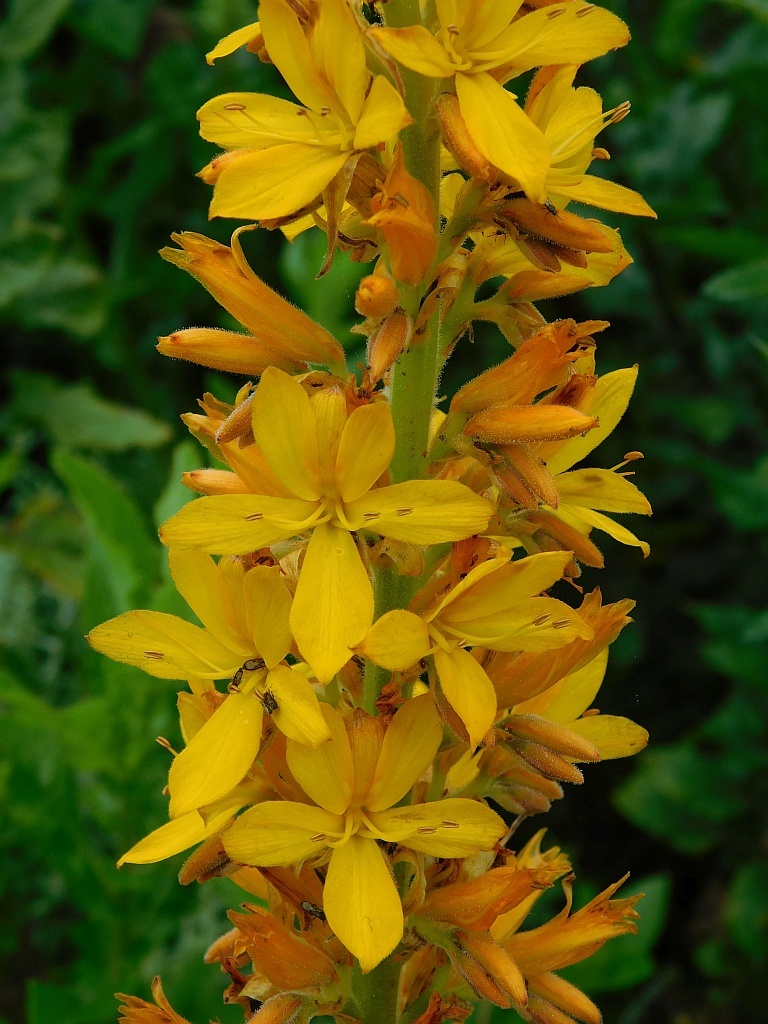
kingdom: Plantae
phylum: Tracheophyta
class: Liliopsida
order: Commelinales
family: Haemodoraceae
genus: Wachendorfia
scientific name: Wachendorfia thyrsiflora
